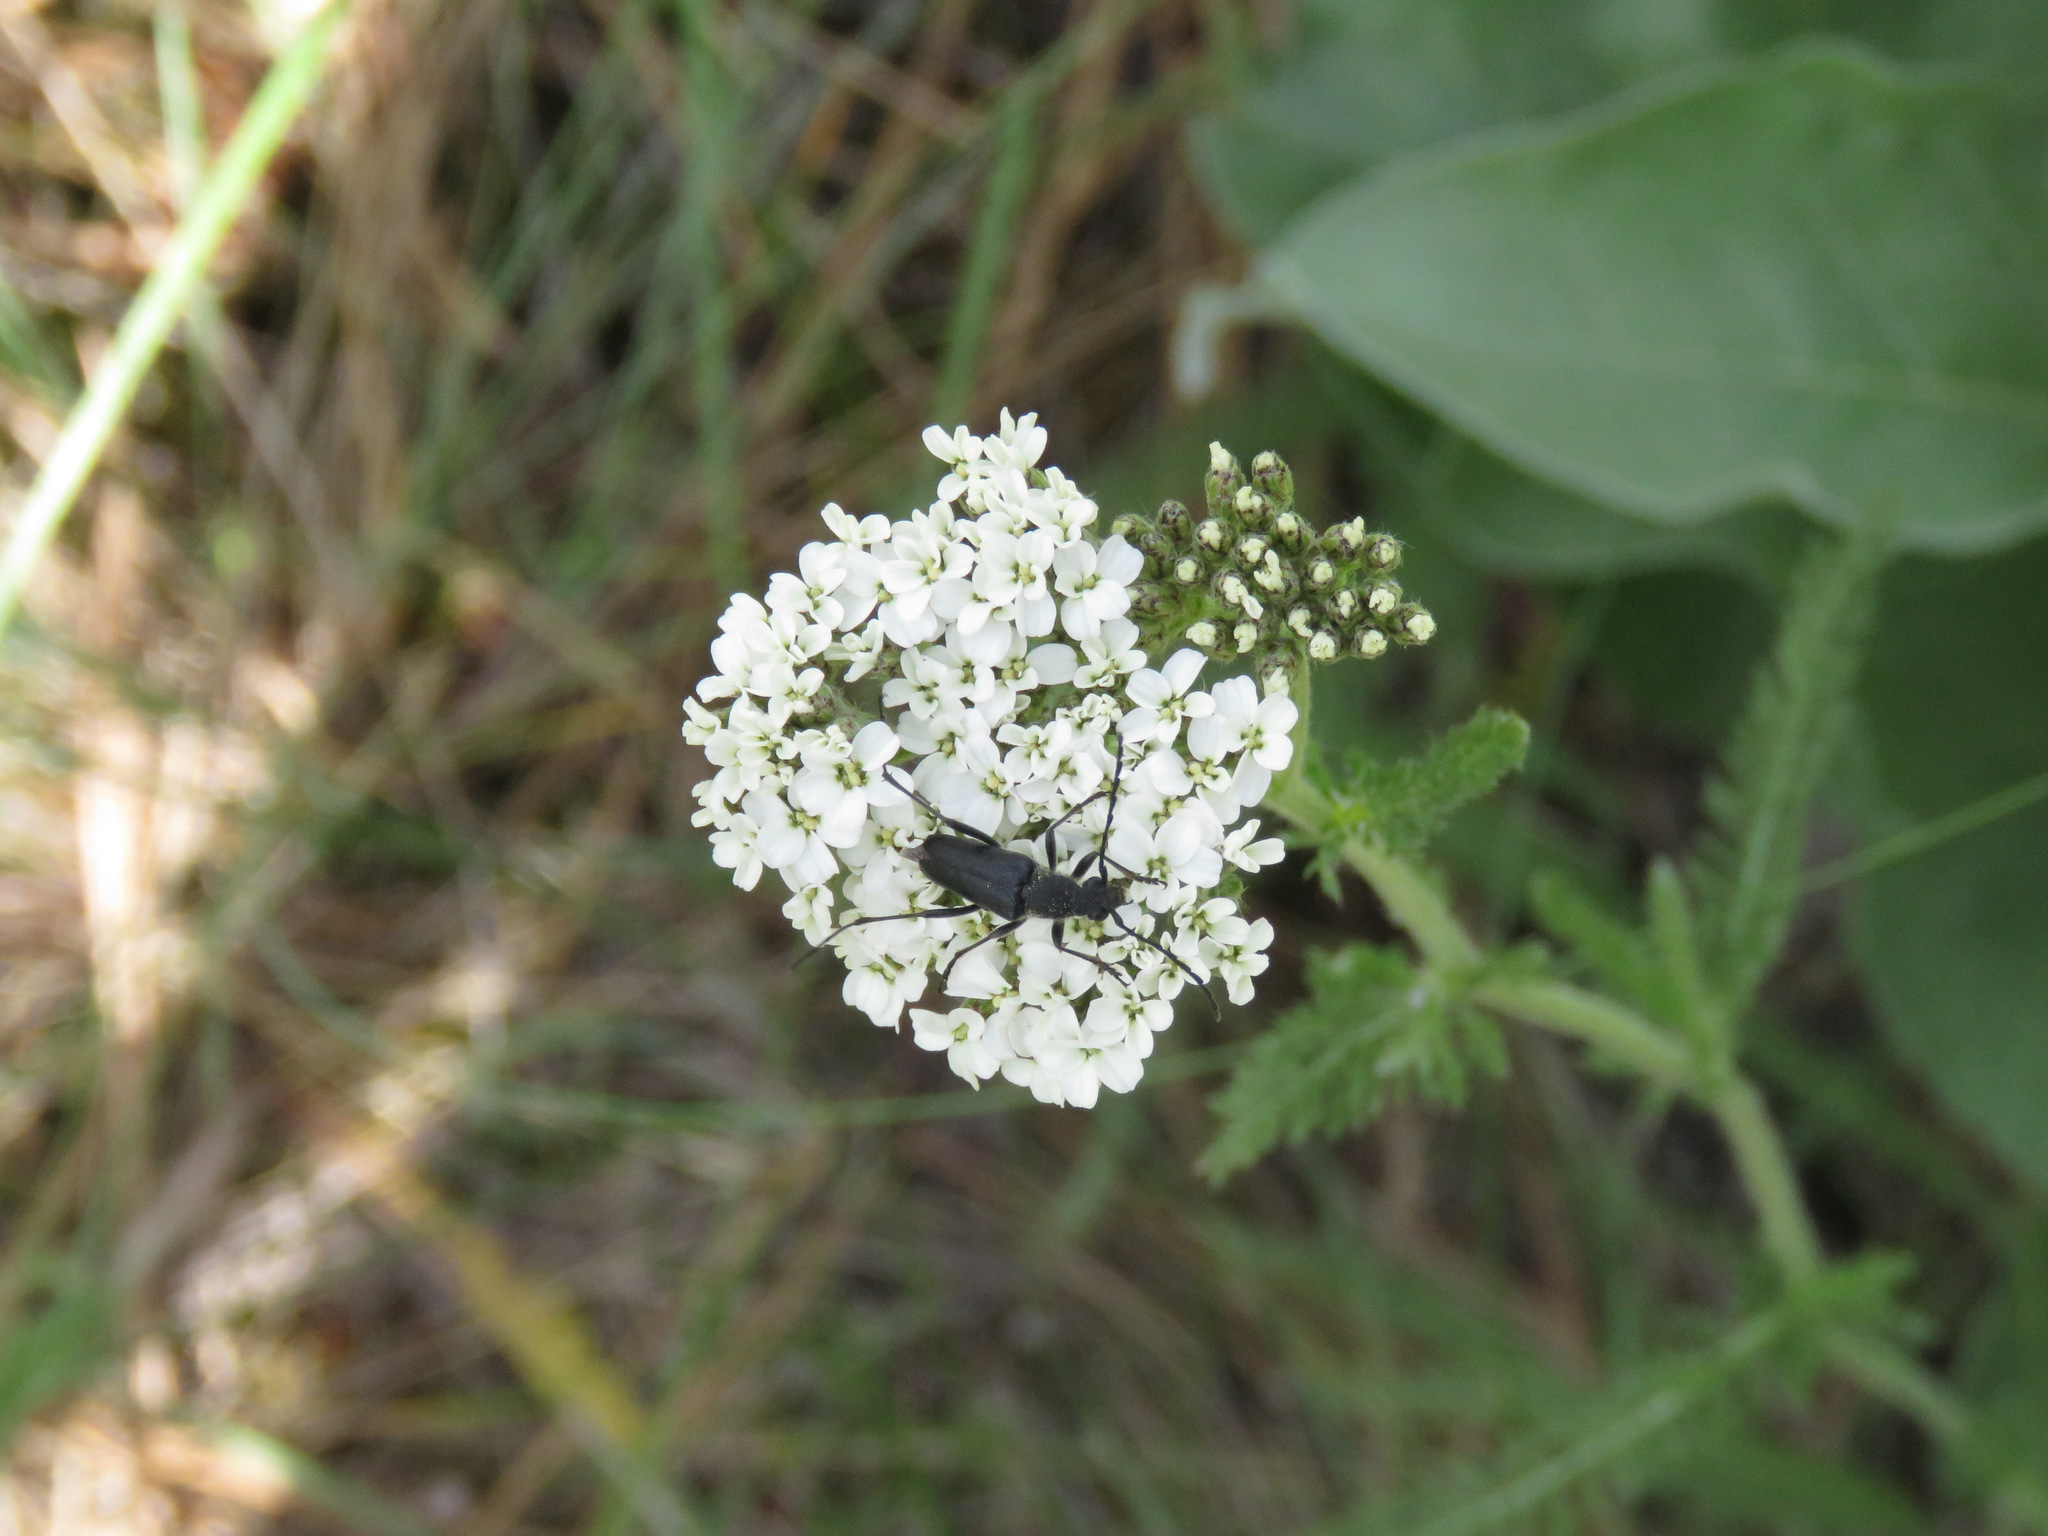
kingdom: Animalia
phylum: Arthropoda
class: Insecta
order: Coleoptera
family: Cerambycidae
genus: Anastrangalia
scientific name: Anastrangalia laetifica
